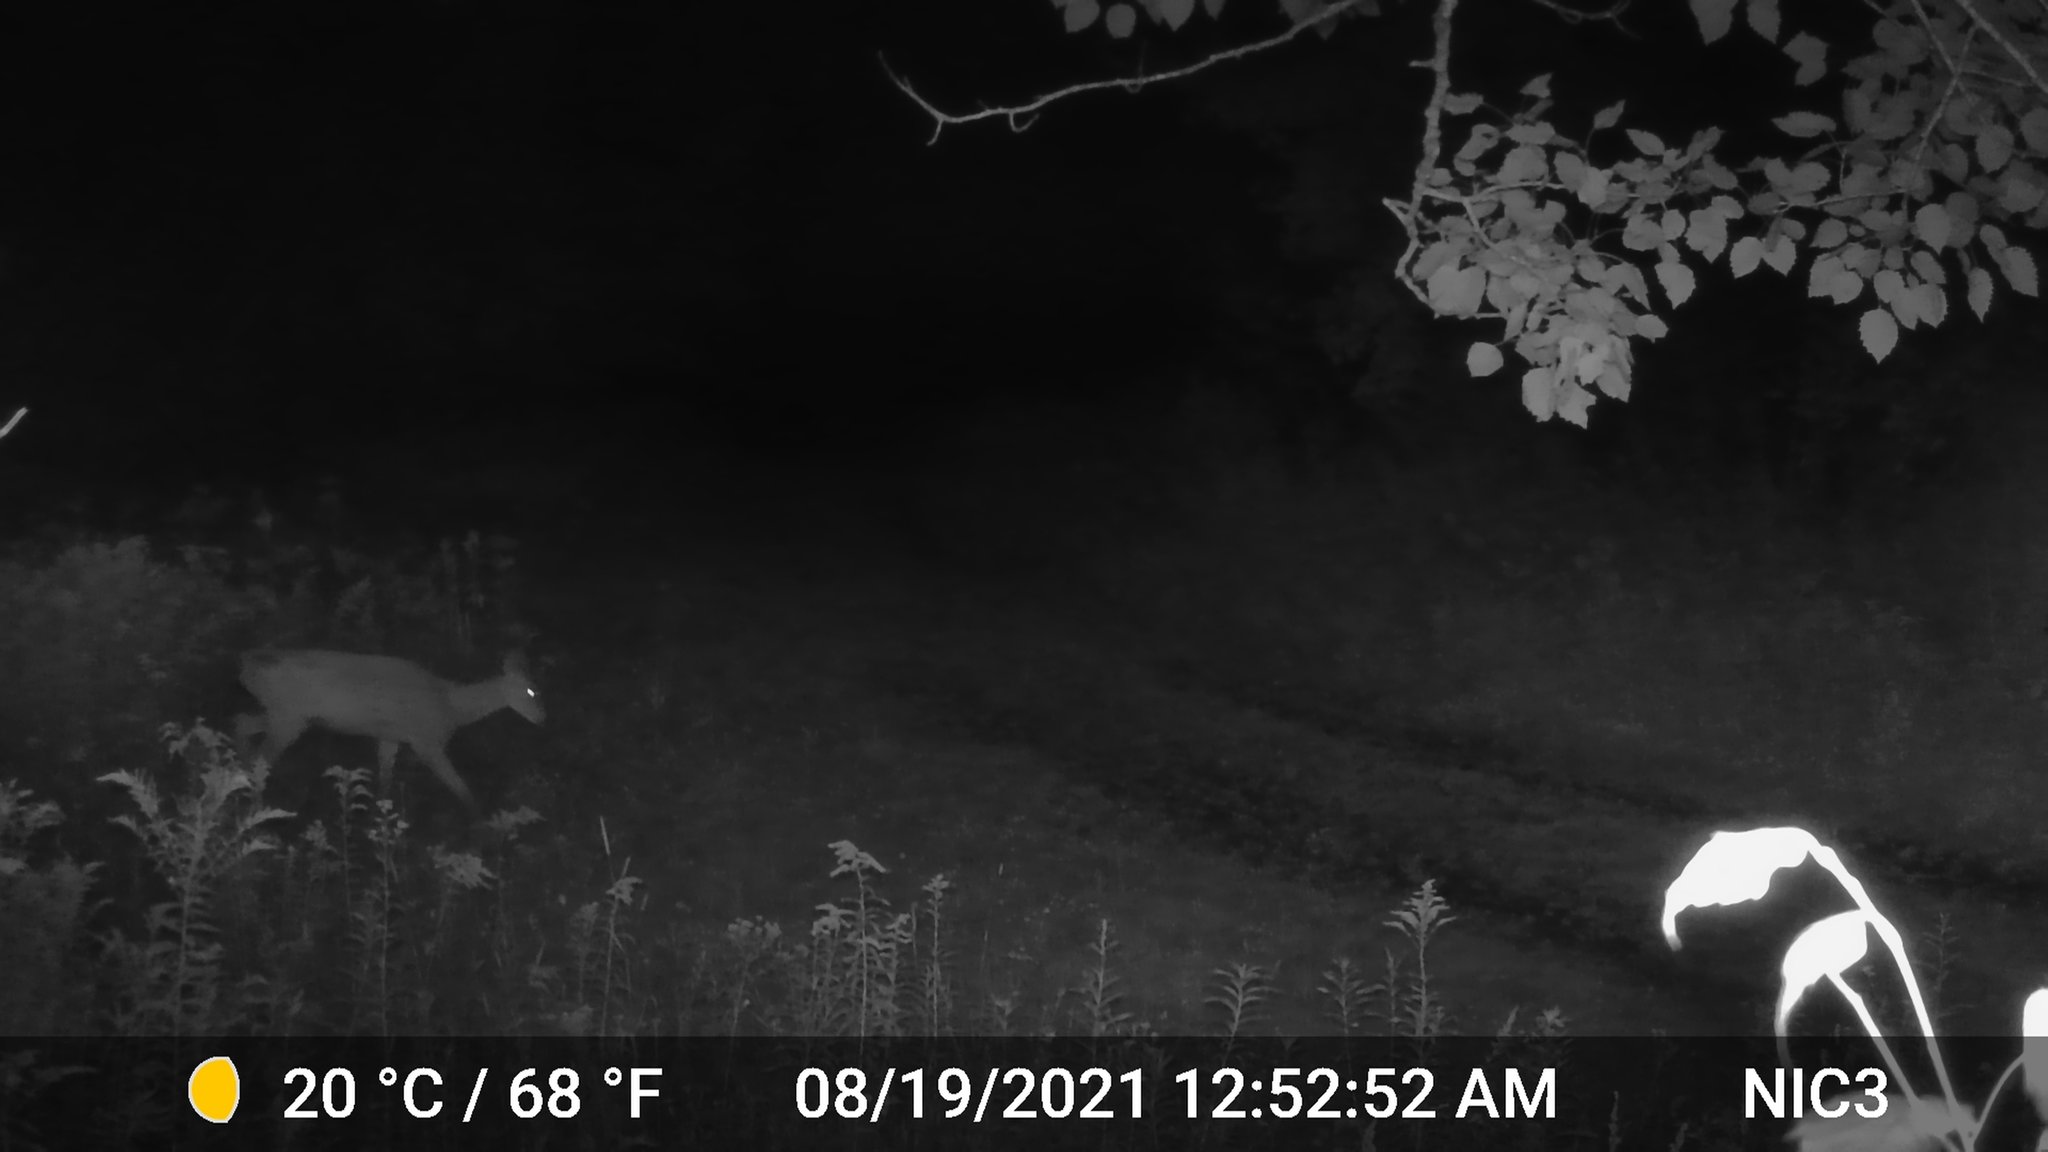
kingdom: Animalia
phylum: Chordata
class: Mammalia
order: Artiodactyla
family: Cervidae
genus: Odocoileus
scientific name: Odocoileus virginianus
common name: White-tailed deer
